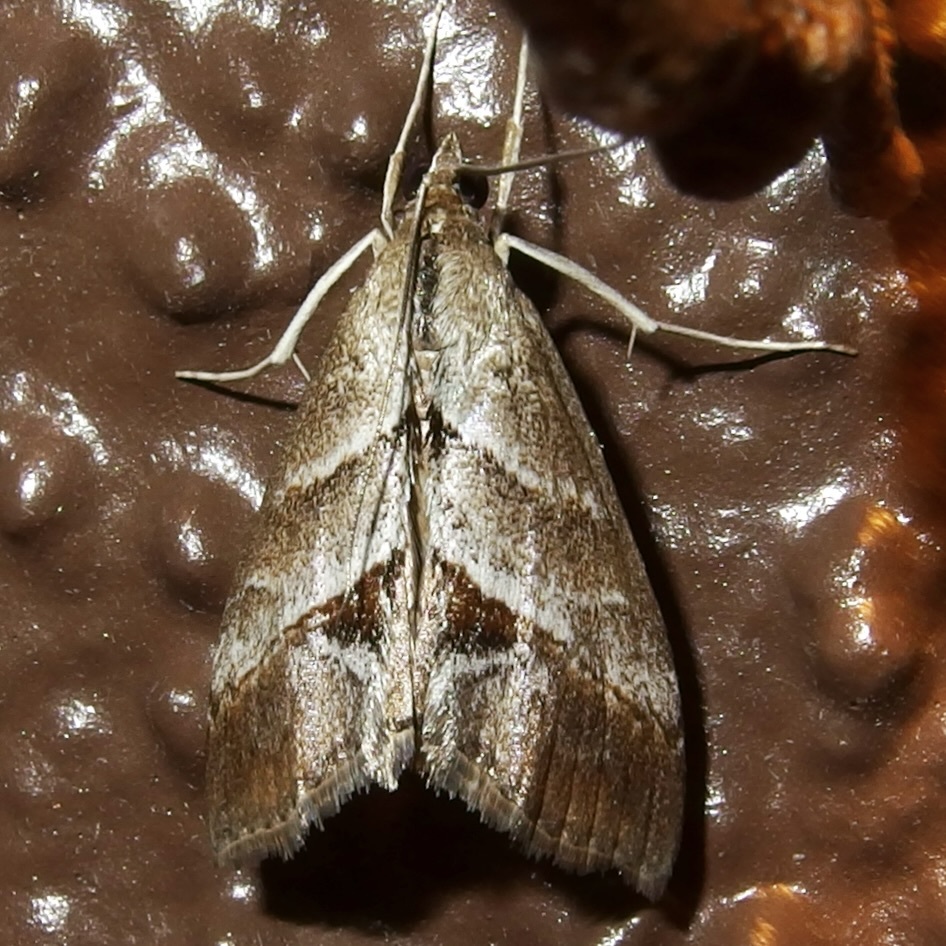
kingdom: Animalia
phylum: Arthropoda
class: Insecta
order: Lepidoptera
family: Crambidae
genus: Evergestis
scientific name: Evergestis triangulalis
